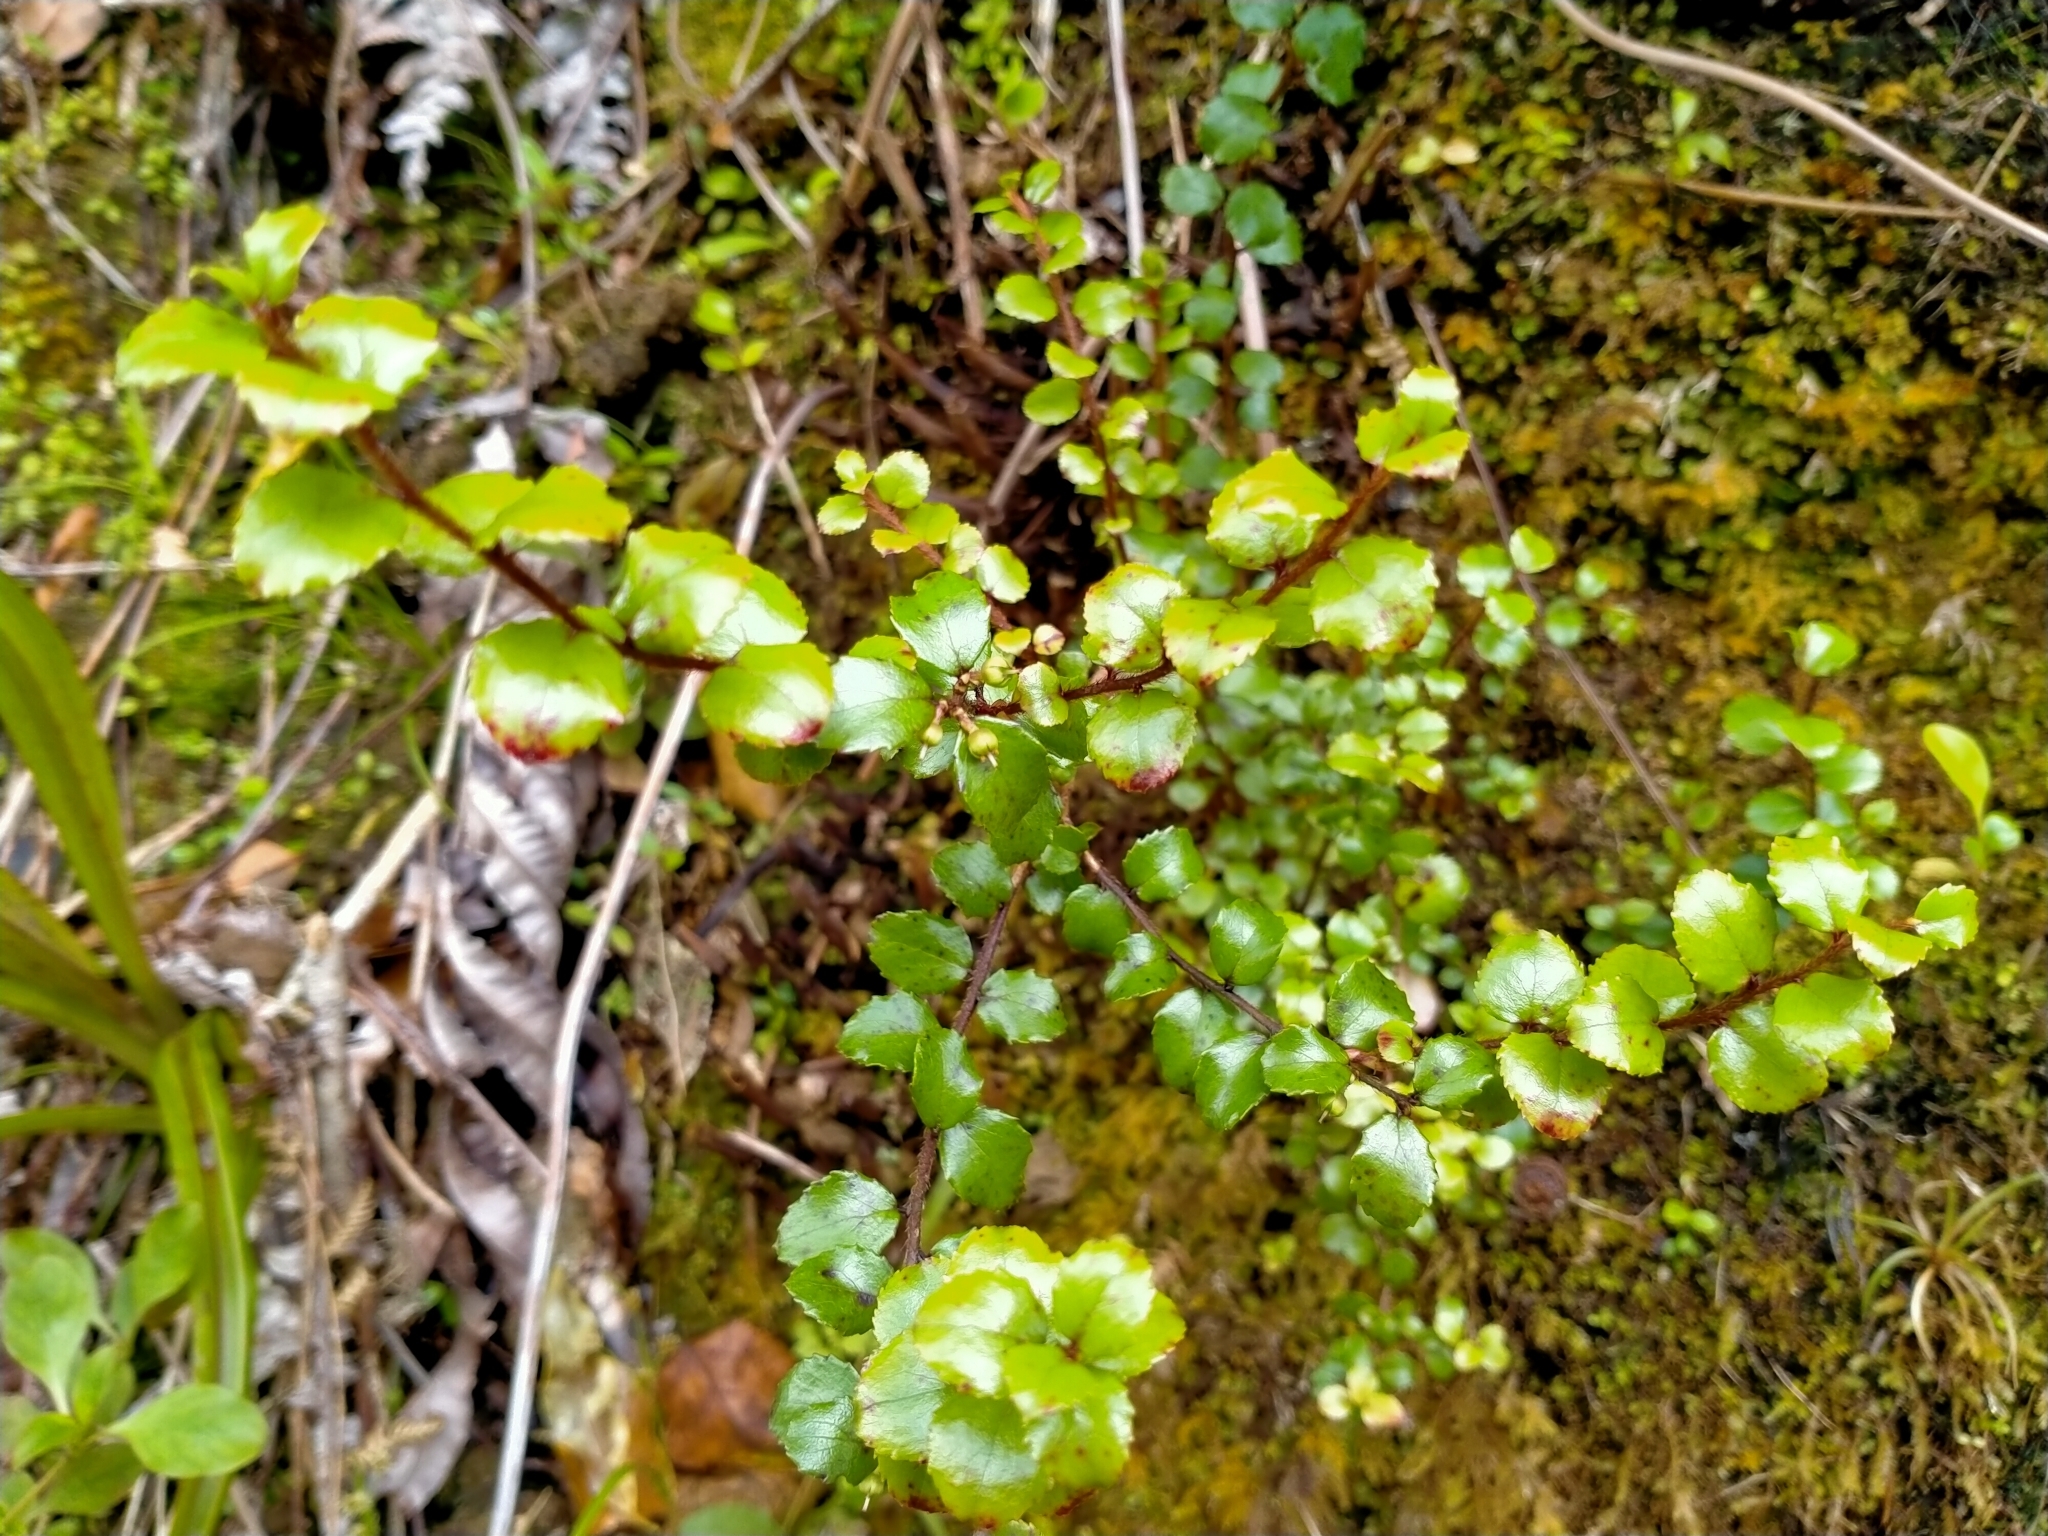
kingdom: Plantae
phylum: Tracheophyta
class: Magnoliopsida
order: Ericales
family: Ericaceae
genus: Gaultheria
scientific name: Gaultheria antipoda
